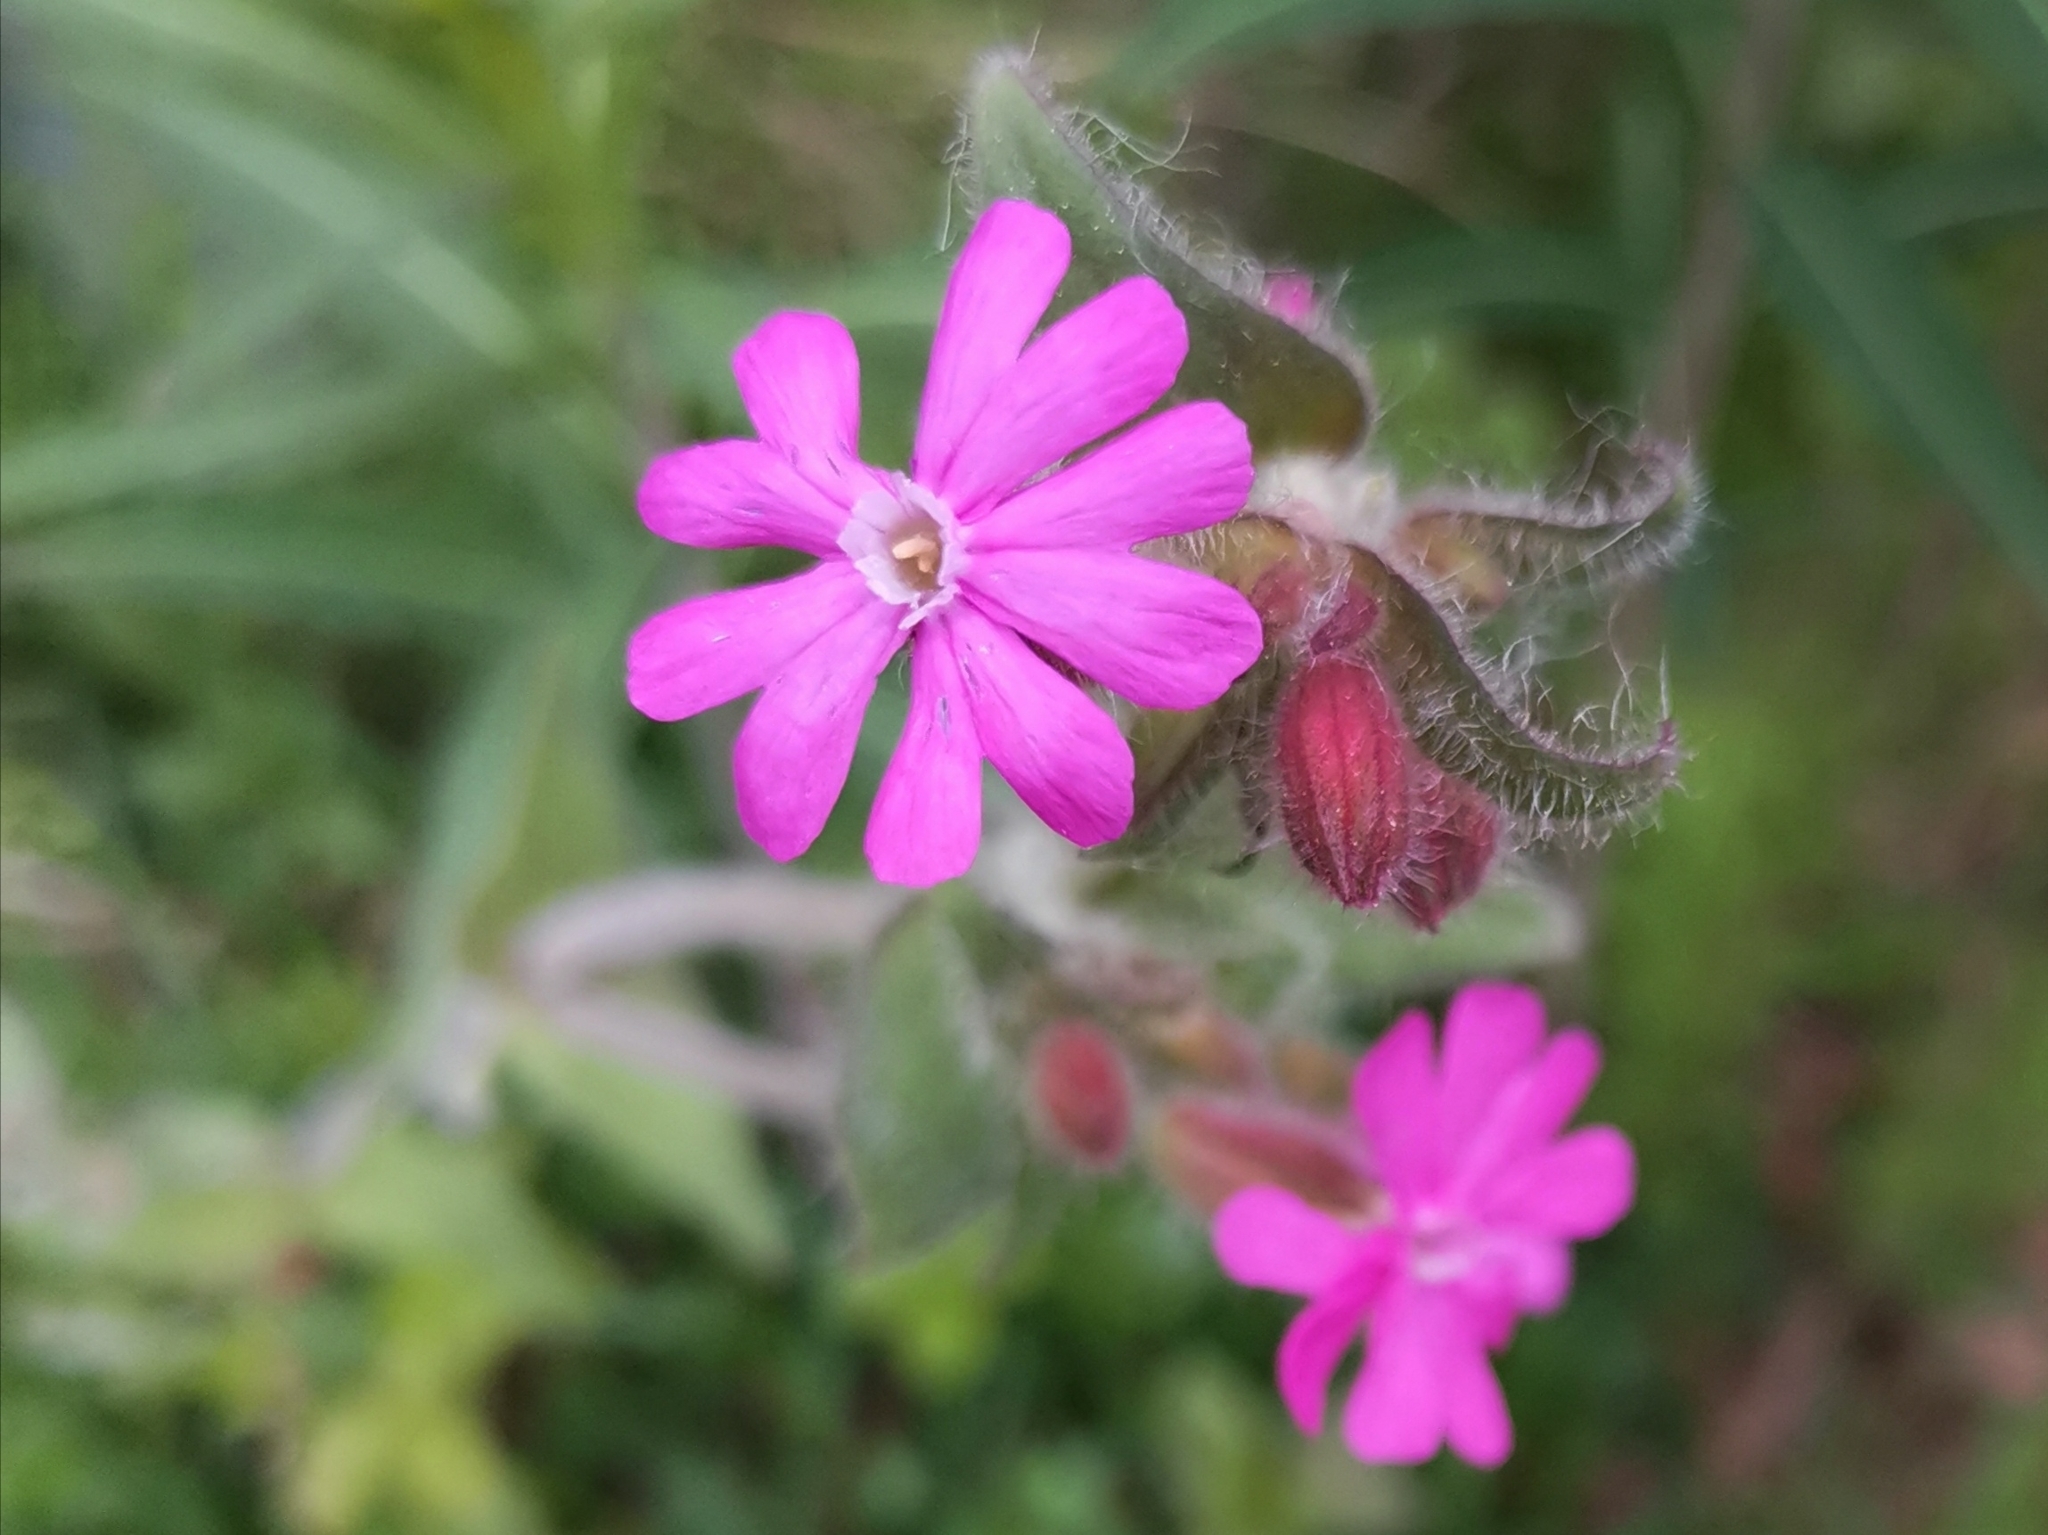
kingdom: Plantae
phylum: Tracheophyta
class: Magnoliopsida
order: Caryophyllales
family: Caryophyllaceae
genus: Silene
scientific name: Silene dioica
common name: Red campion
